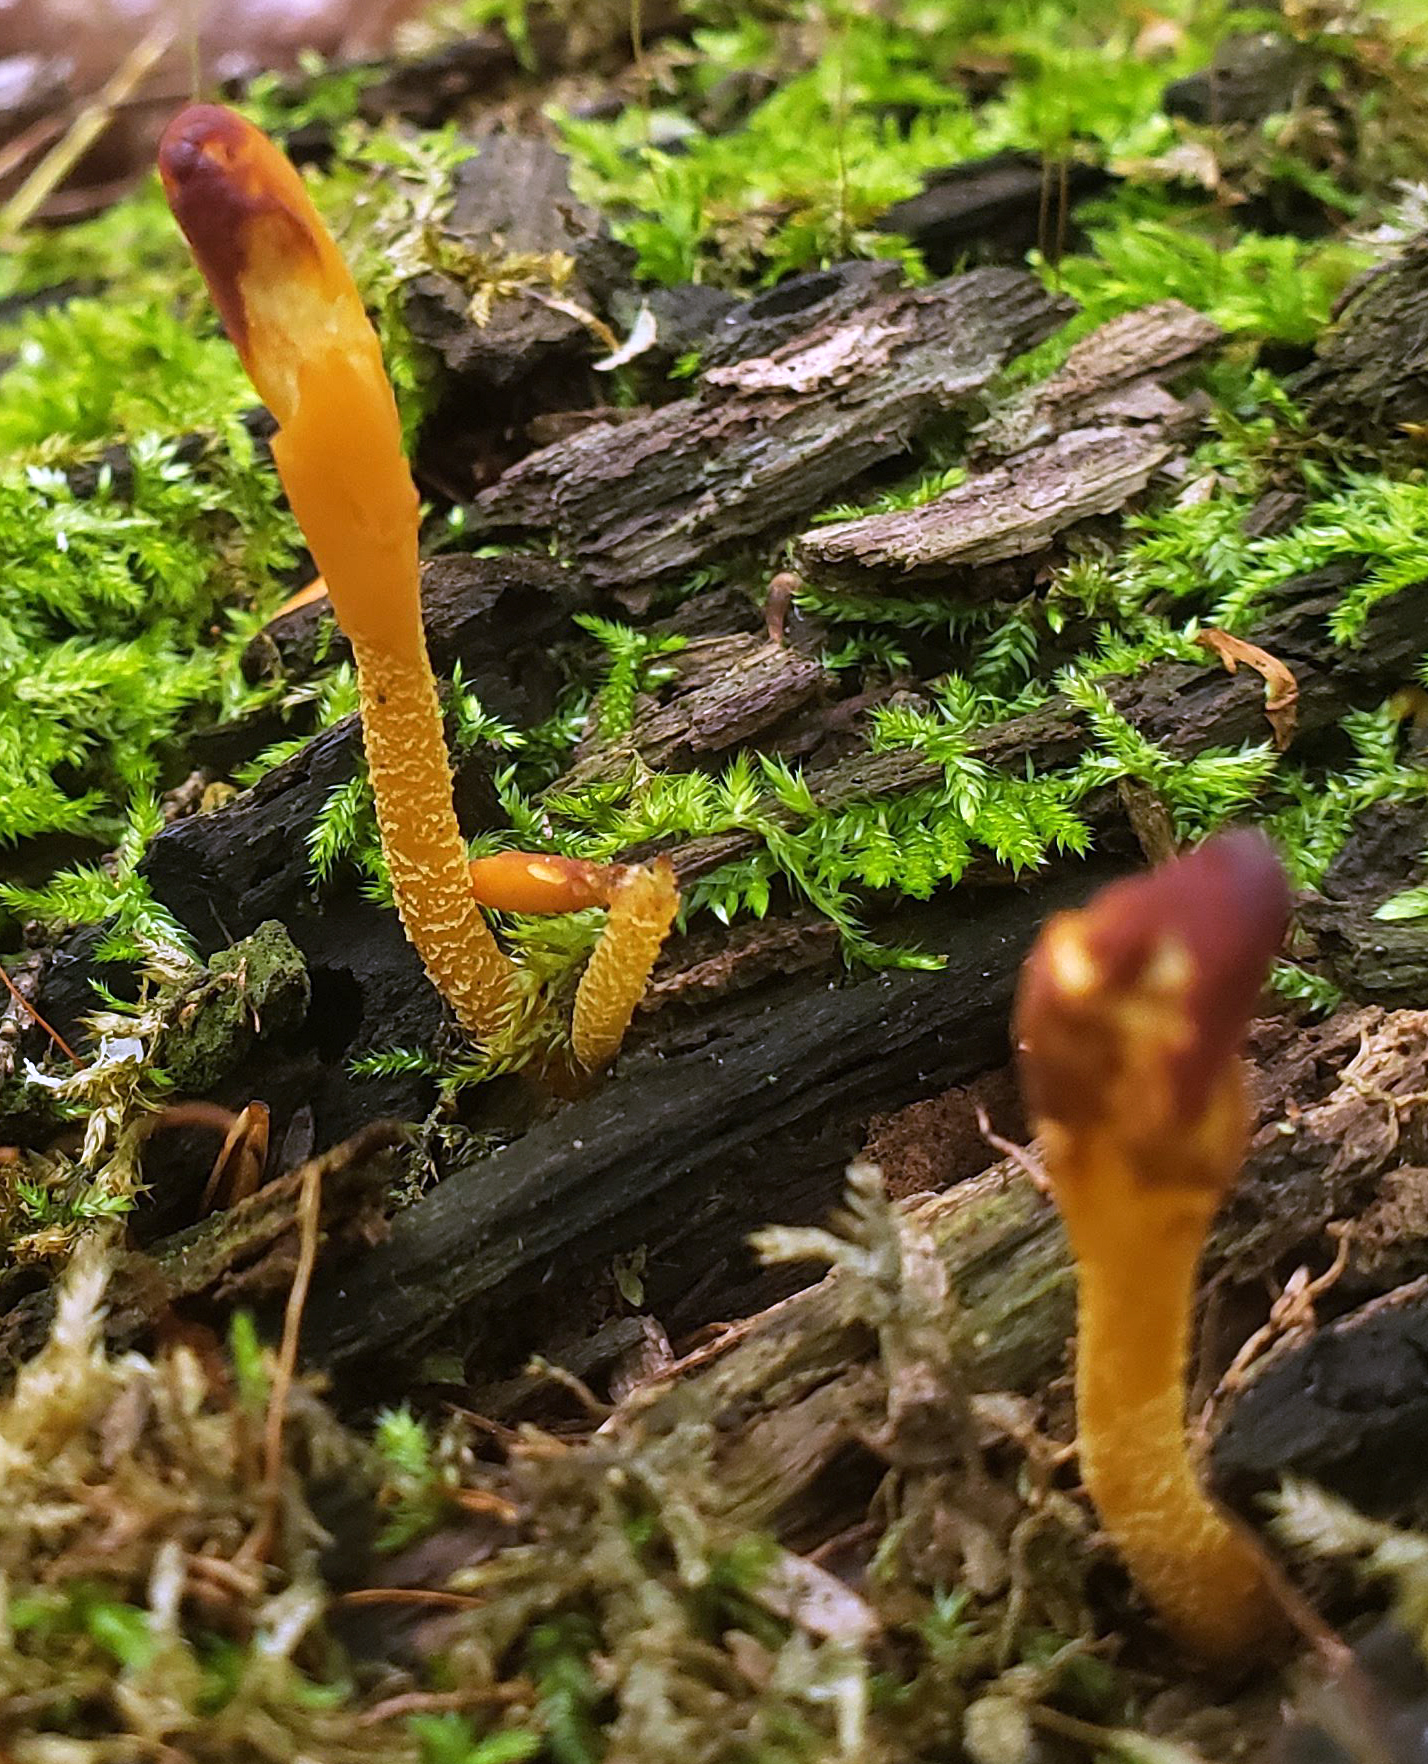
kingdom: Fungi
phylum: Ascomycota
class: Leotiomycetes
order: Leotiales
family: Leotiaceae
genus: Microglossum
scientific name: Microglossum rufum
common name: Orange earthtongue
